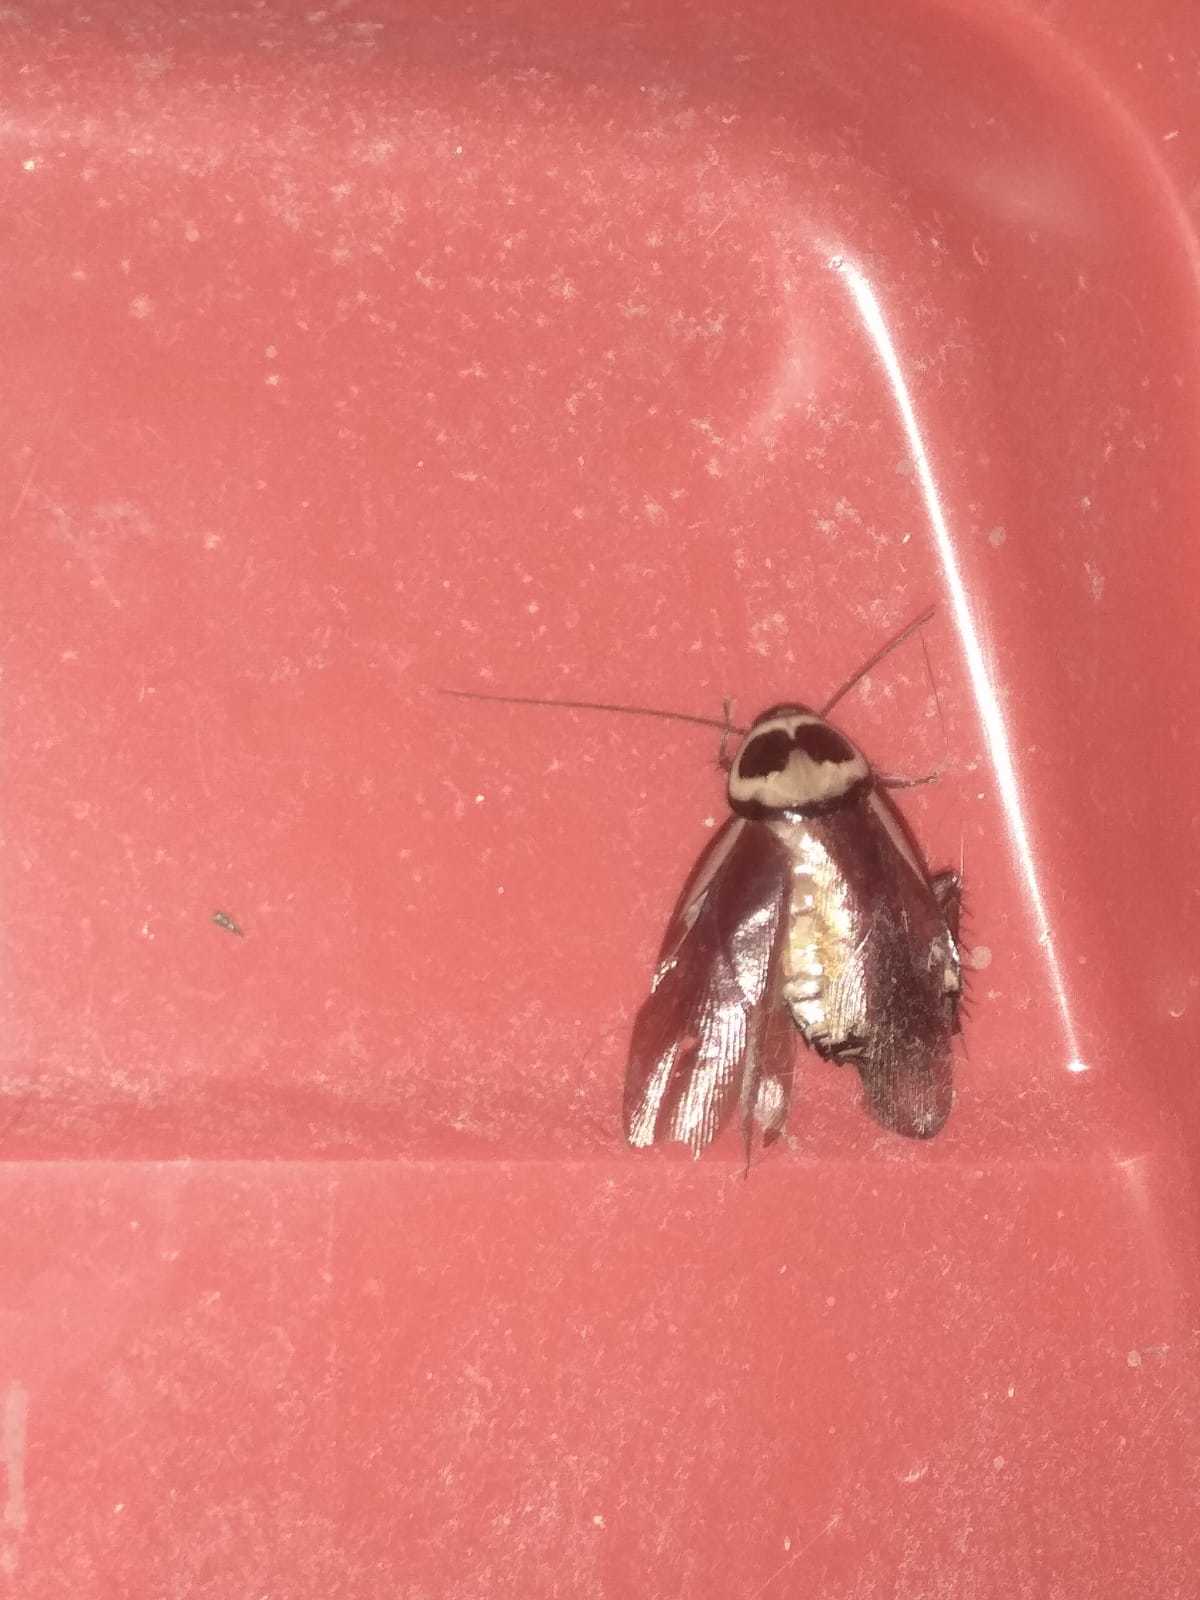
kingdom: Animalia
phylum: Arthropoda
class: Insecta
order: Blattodea
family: Blattidae
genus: Periplaneta
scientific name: Periplaneta australasiae
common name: Australian cockroach
